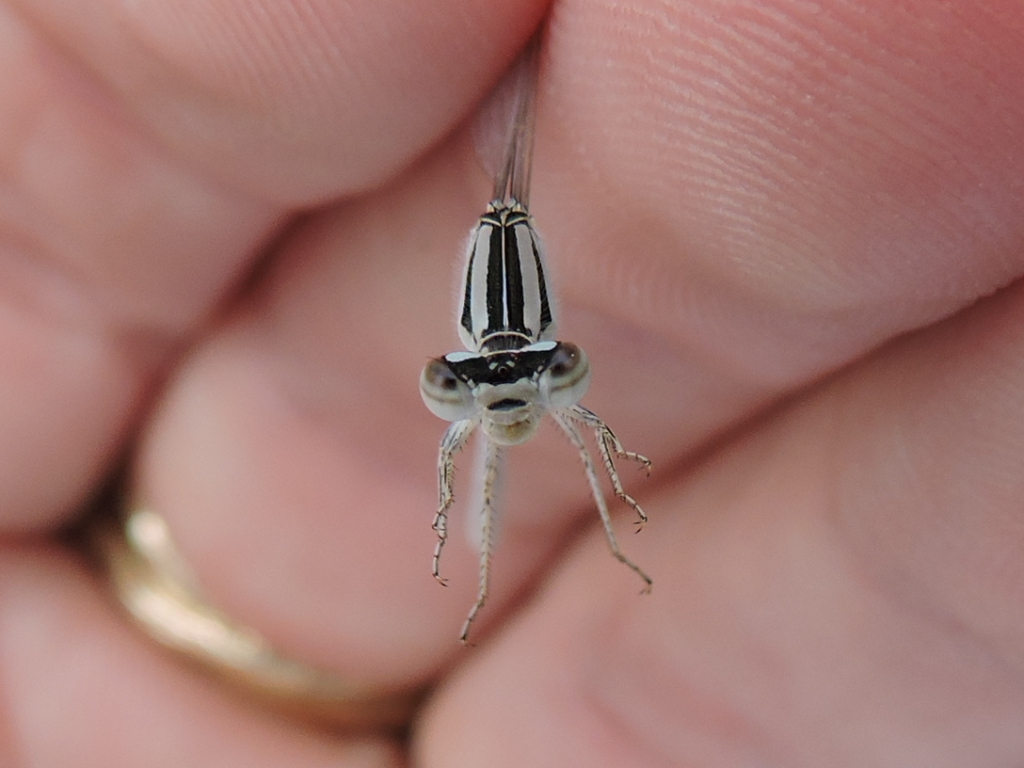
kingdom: Animalia
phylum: Arthropoda
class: Insecta
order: Odonata
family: Coenagrionidae
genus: Enallagma
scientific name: Enallagma civile
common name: Damselfly
